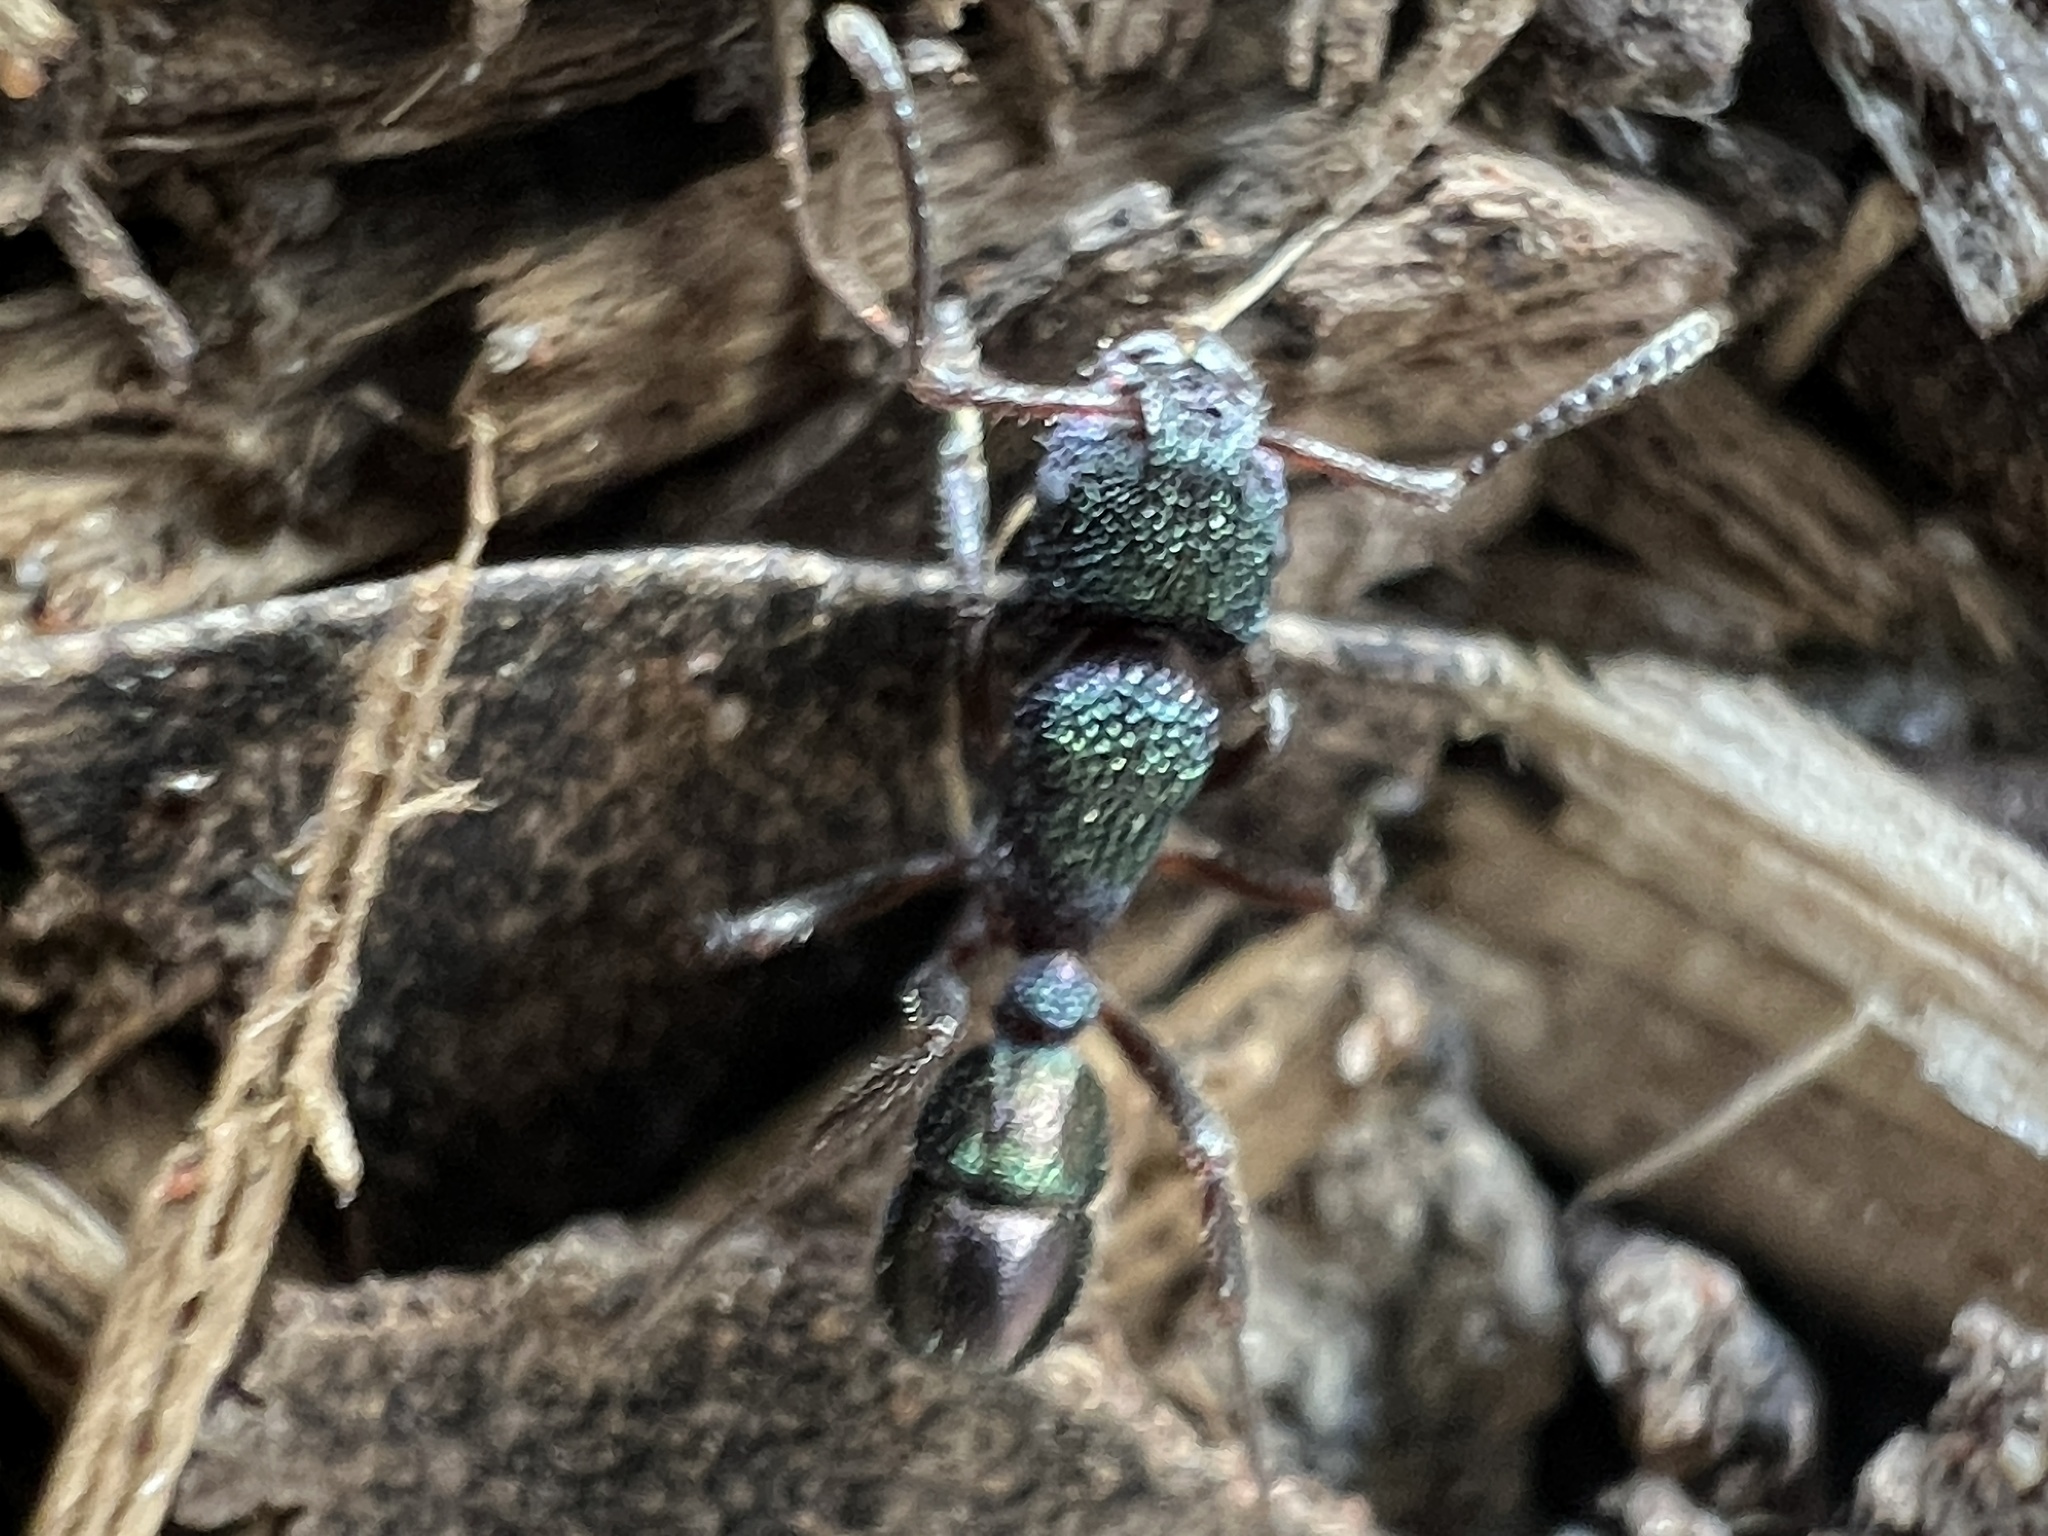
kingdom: Animalia
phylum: Arthropoda
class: Insecta
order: Hymenoptera
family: Formicidae
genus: Rhytidoponera
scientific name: Rhytidoponera metallica
